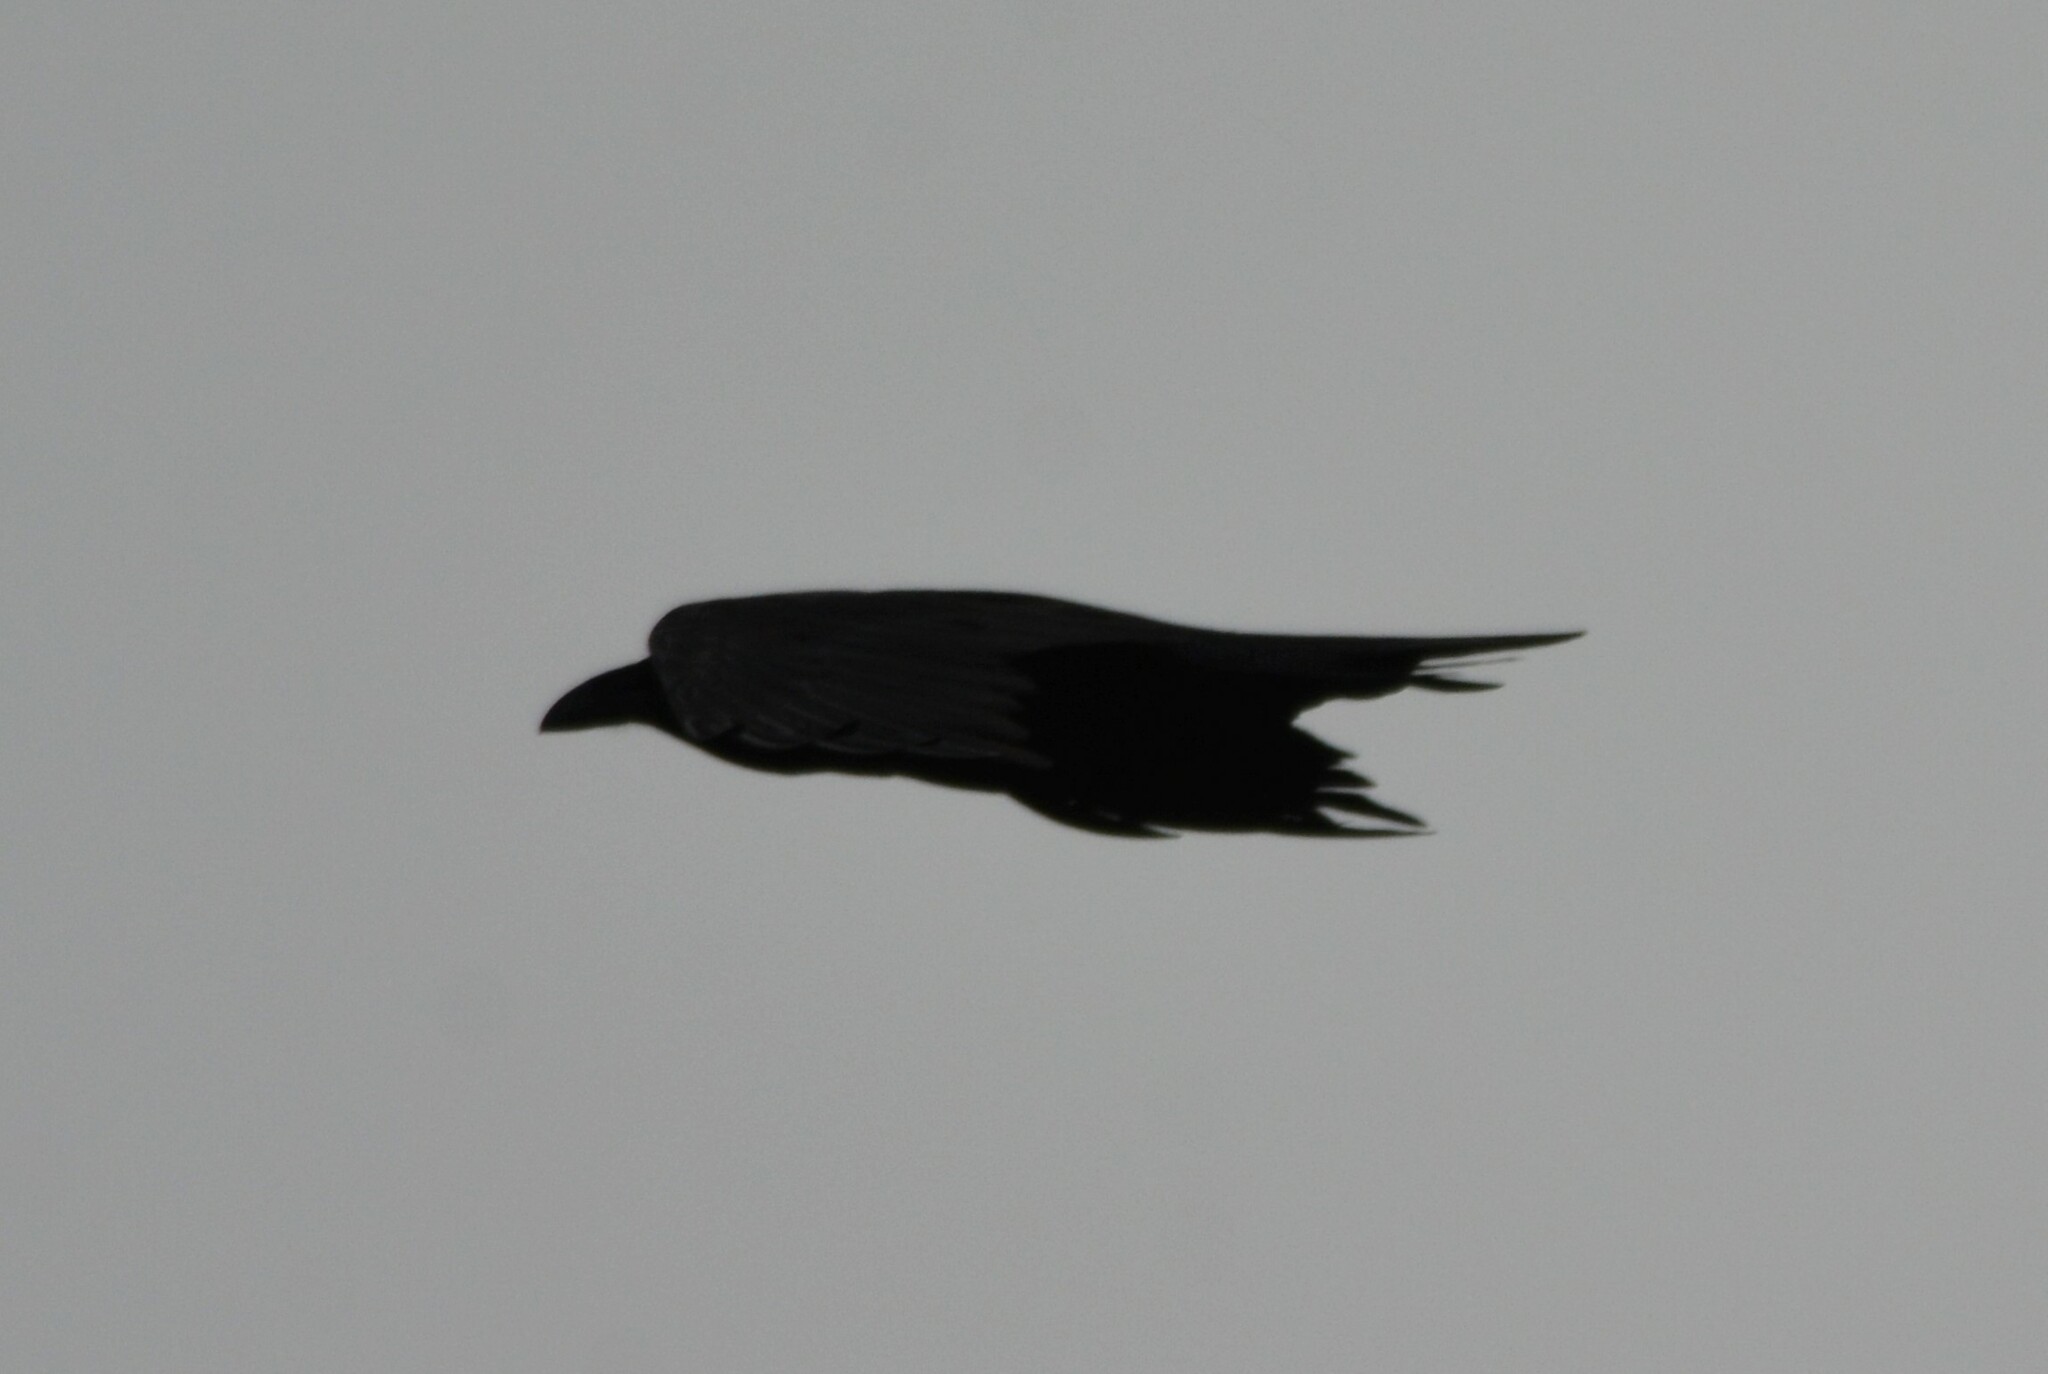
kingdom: Animalia
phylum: Chordata
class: Aves
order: Passeriformes
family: Corvidae
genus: Corvus
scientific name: Corvus corax
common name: Common raven
